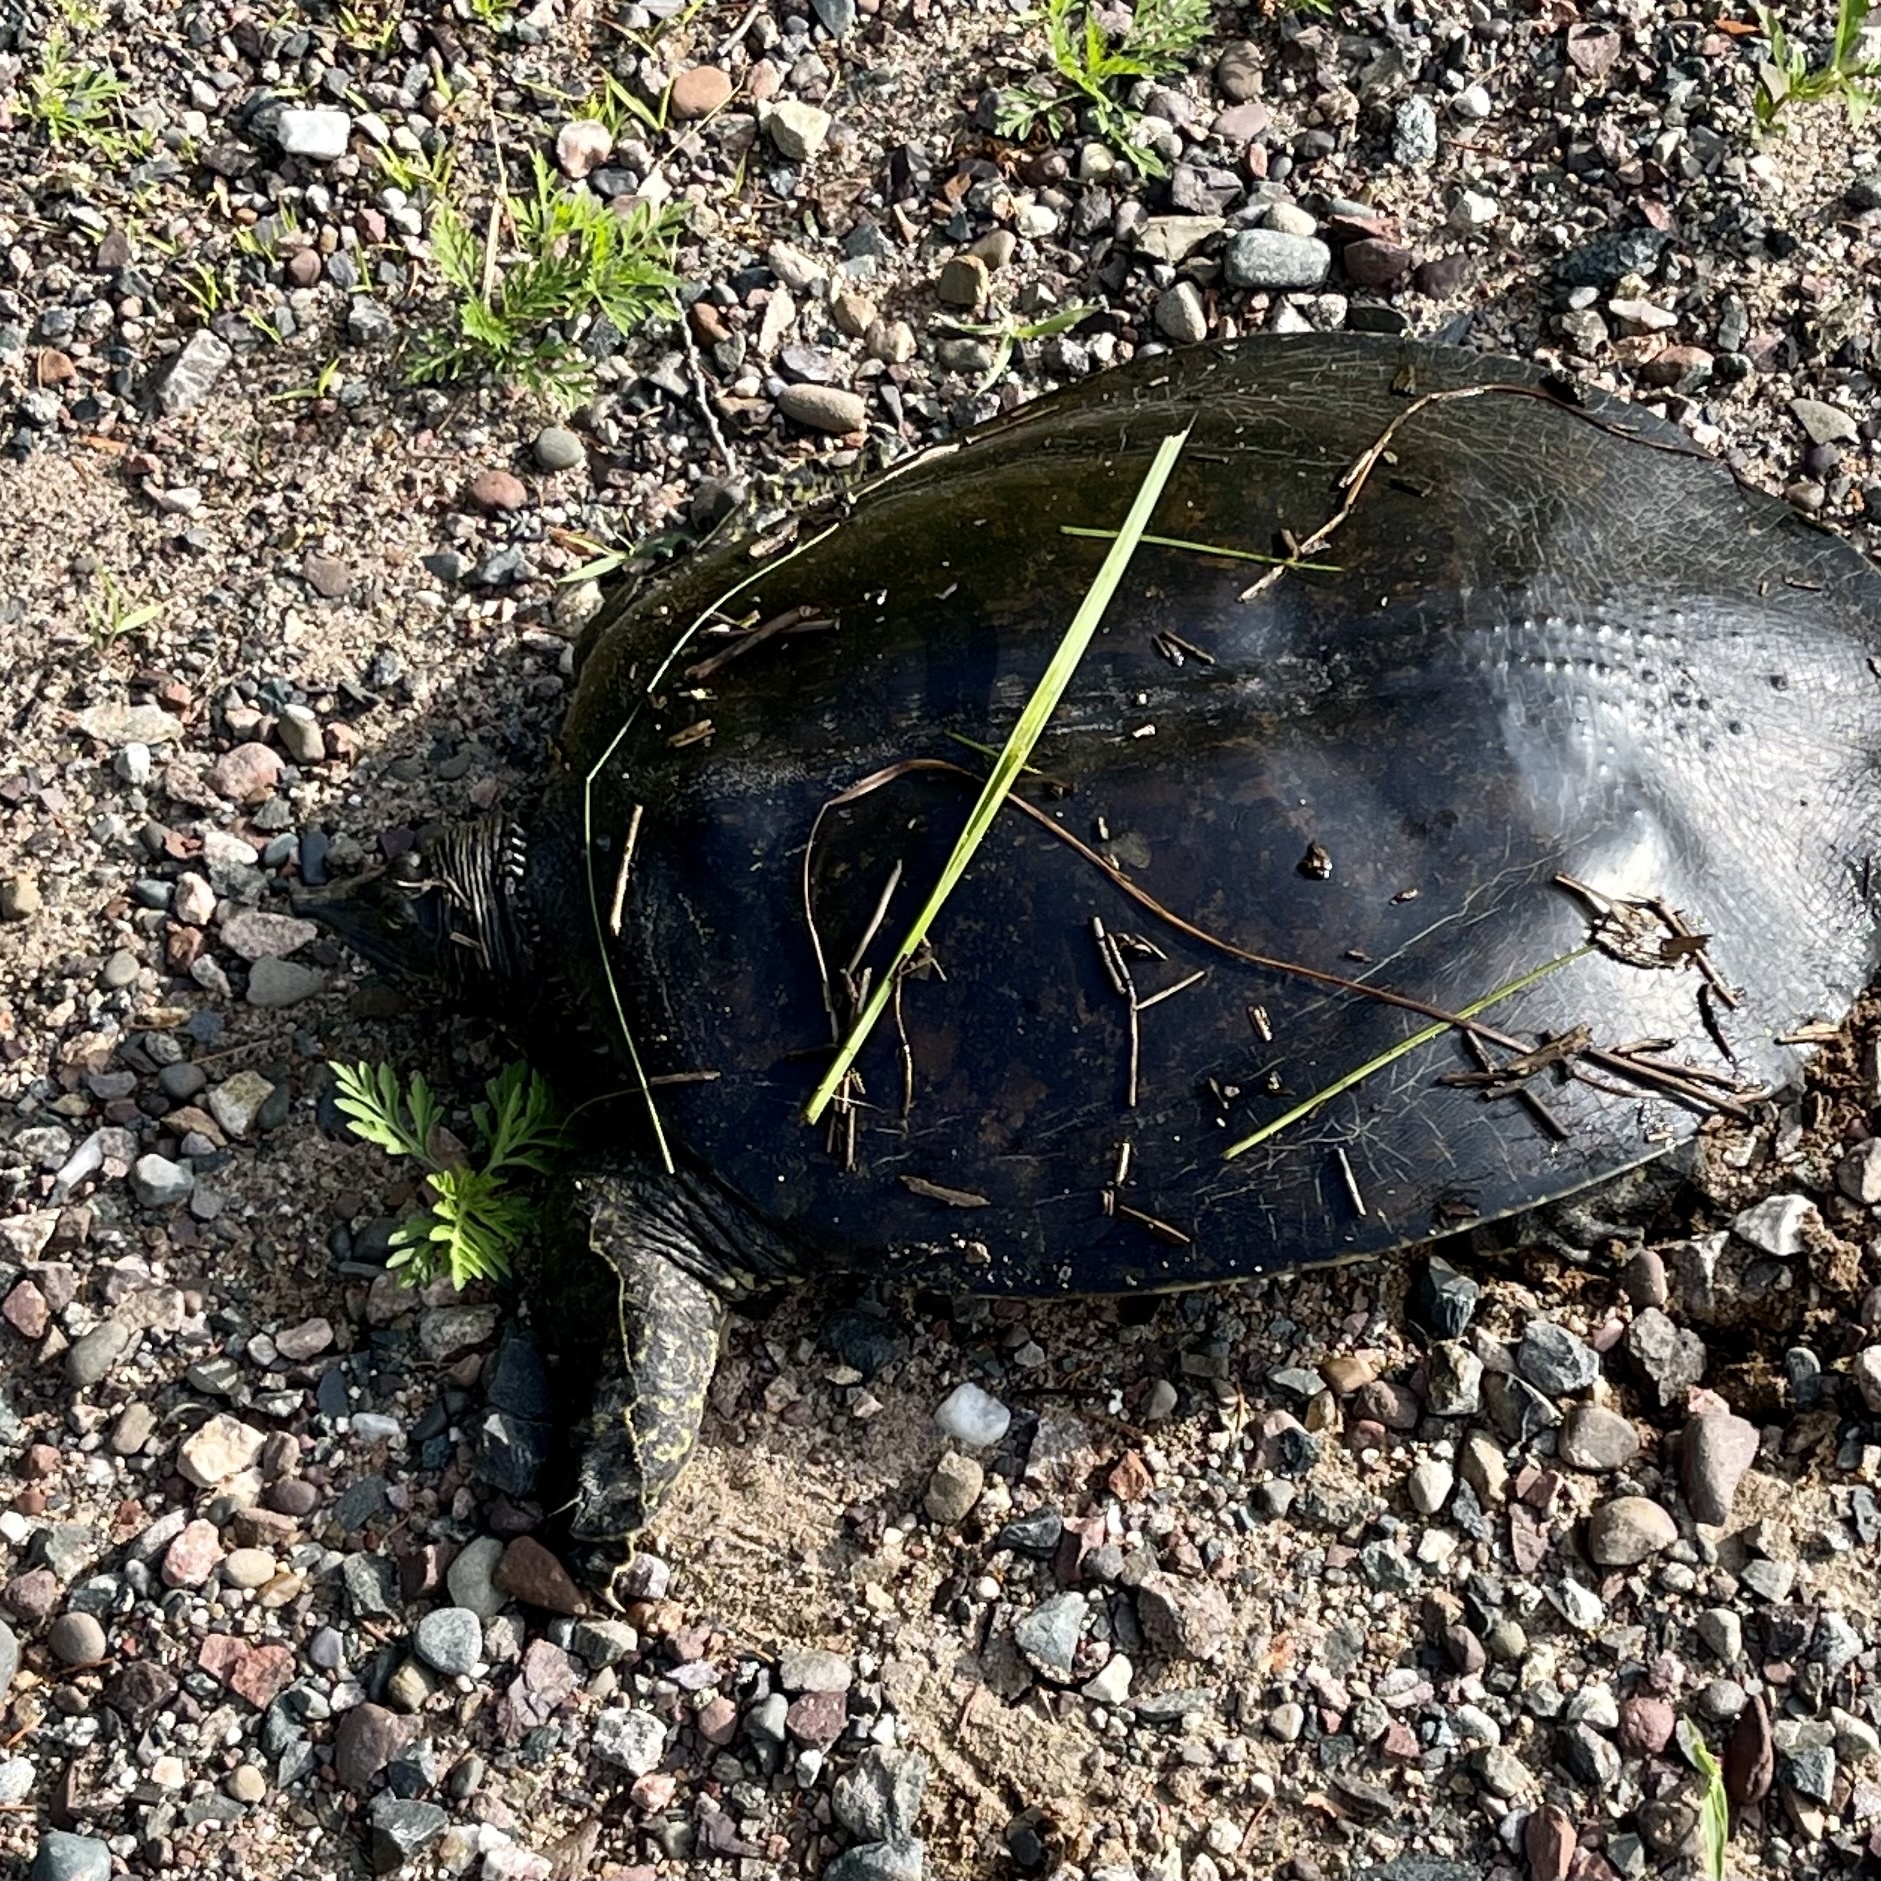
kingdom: Animalia
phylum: Chordata
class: Testudines
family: Trionychidae
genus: Apalone
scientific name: Apalone spinifera
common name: Spiny softshell turtle
